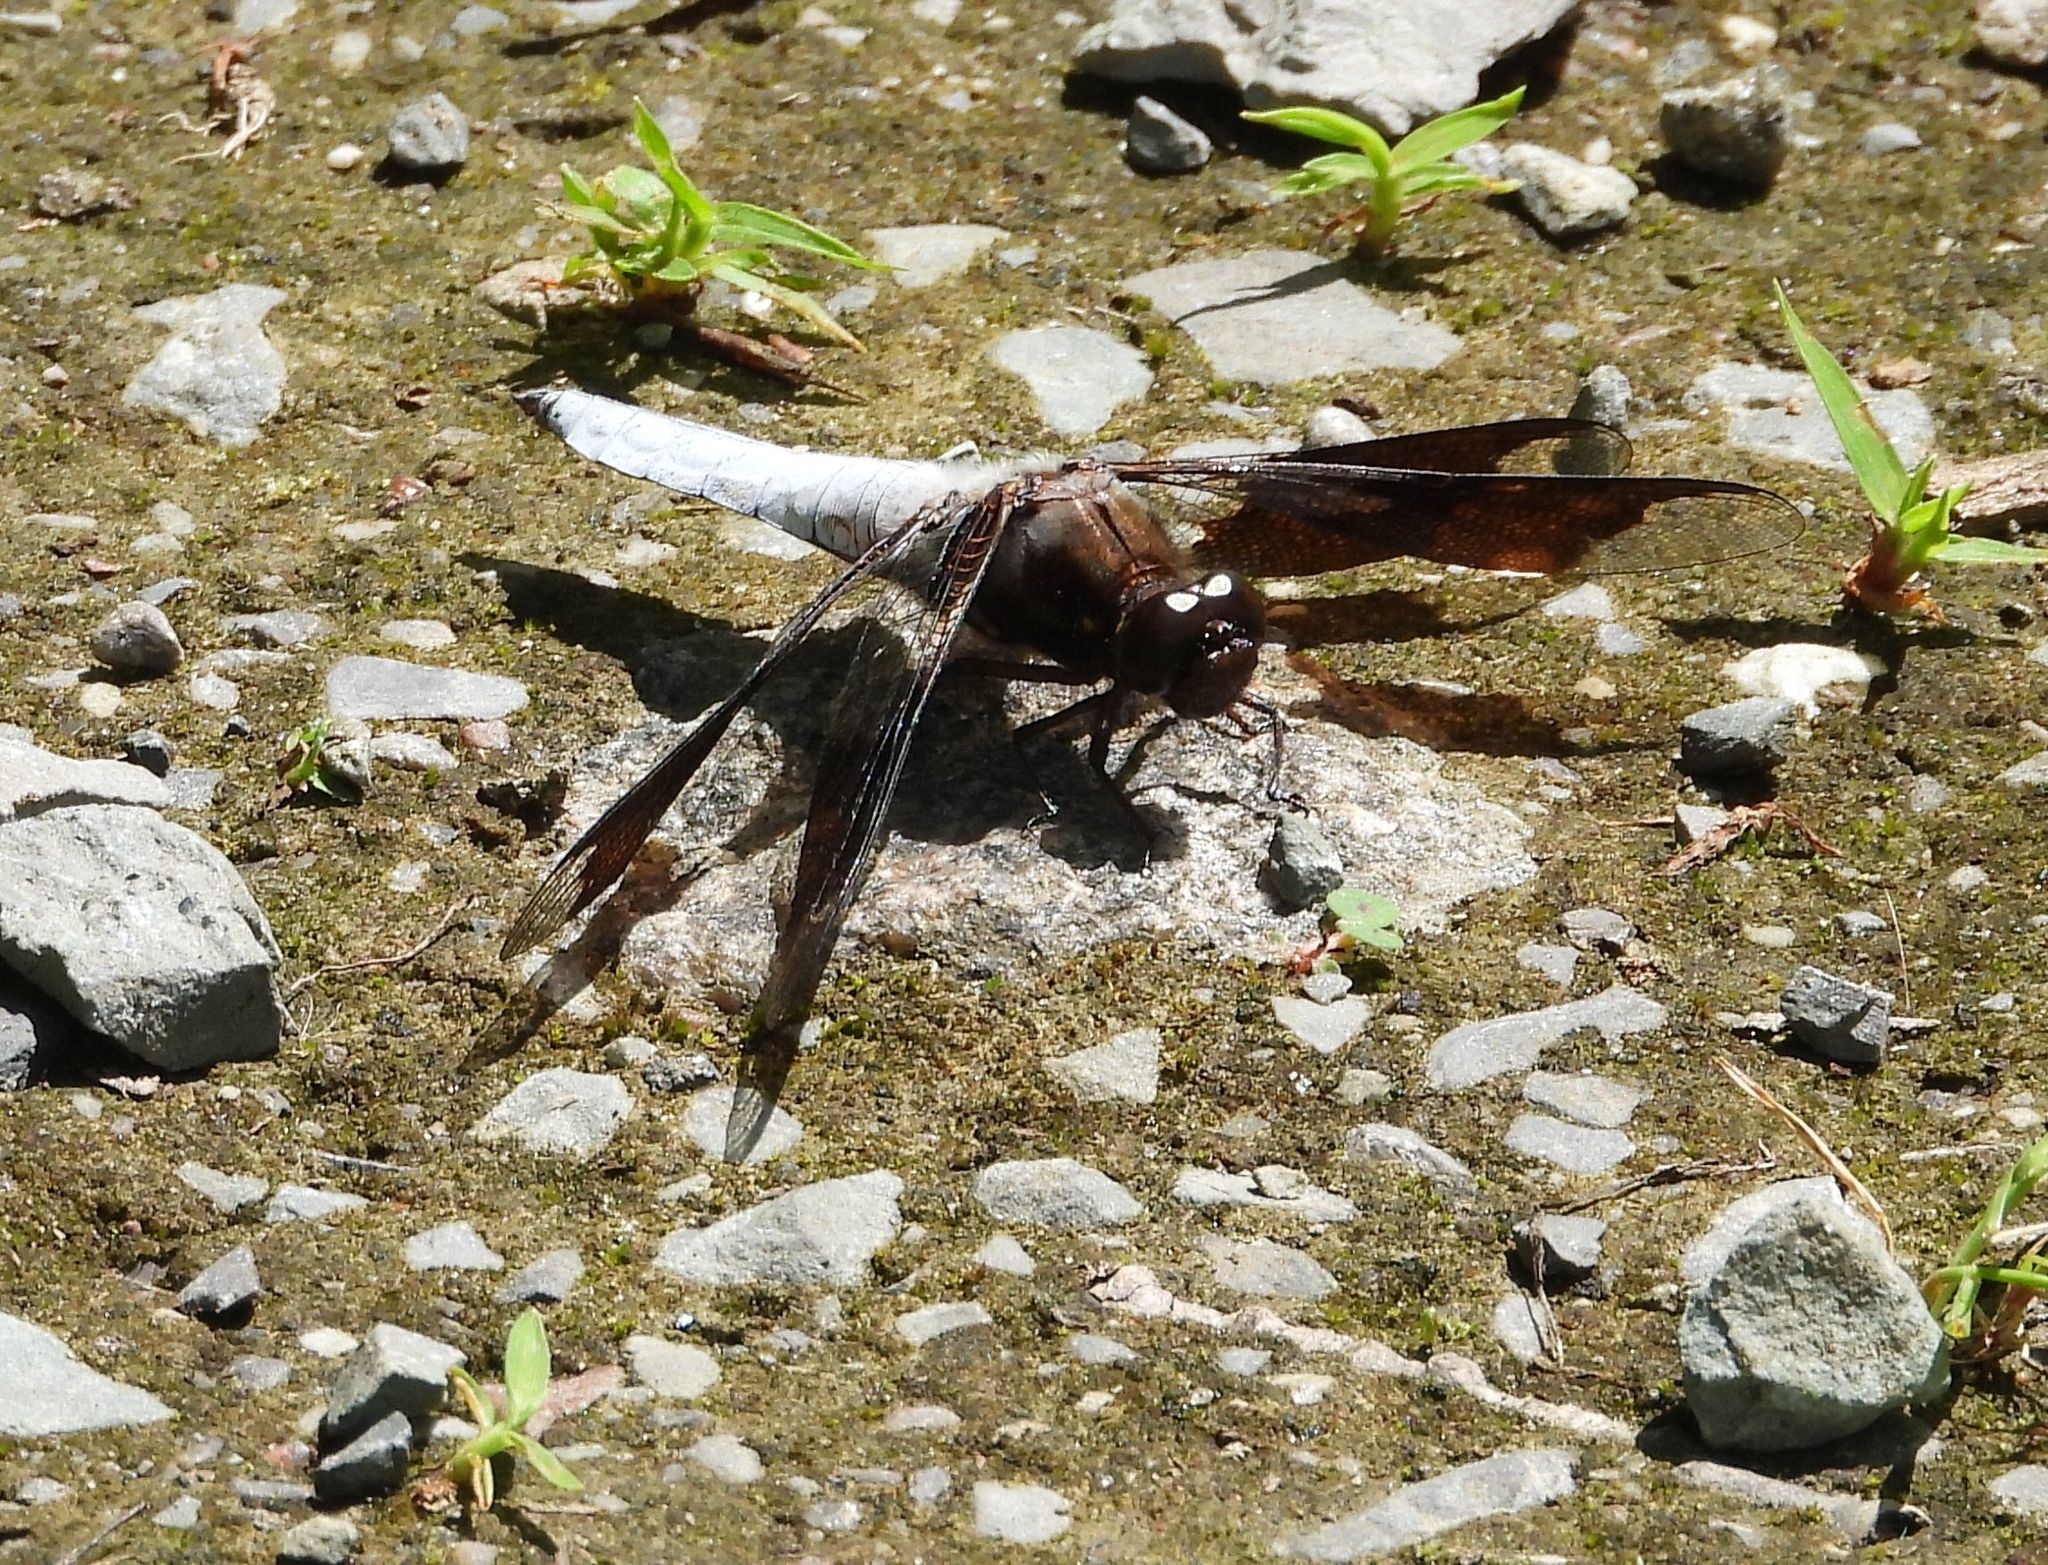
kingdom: Animalia
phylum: Arthropoda
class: Insecta
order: Odonata
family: Libellulidae
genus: Plathemis
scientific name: Plathemis lydia
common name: Common whitetail
